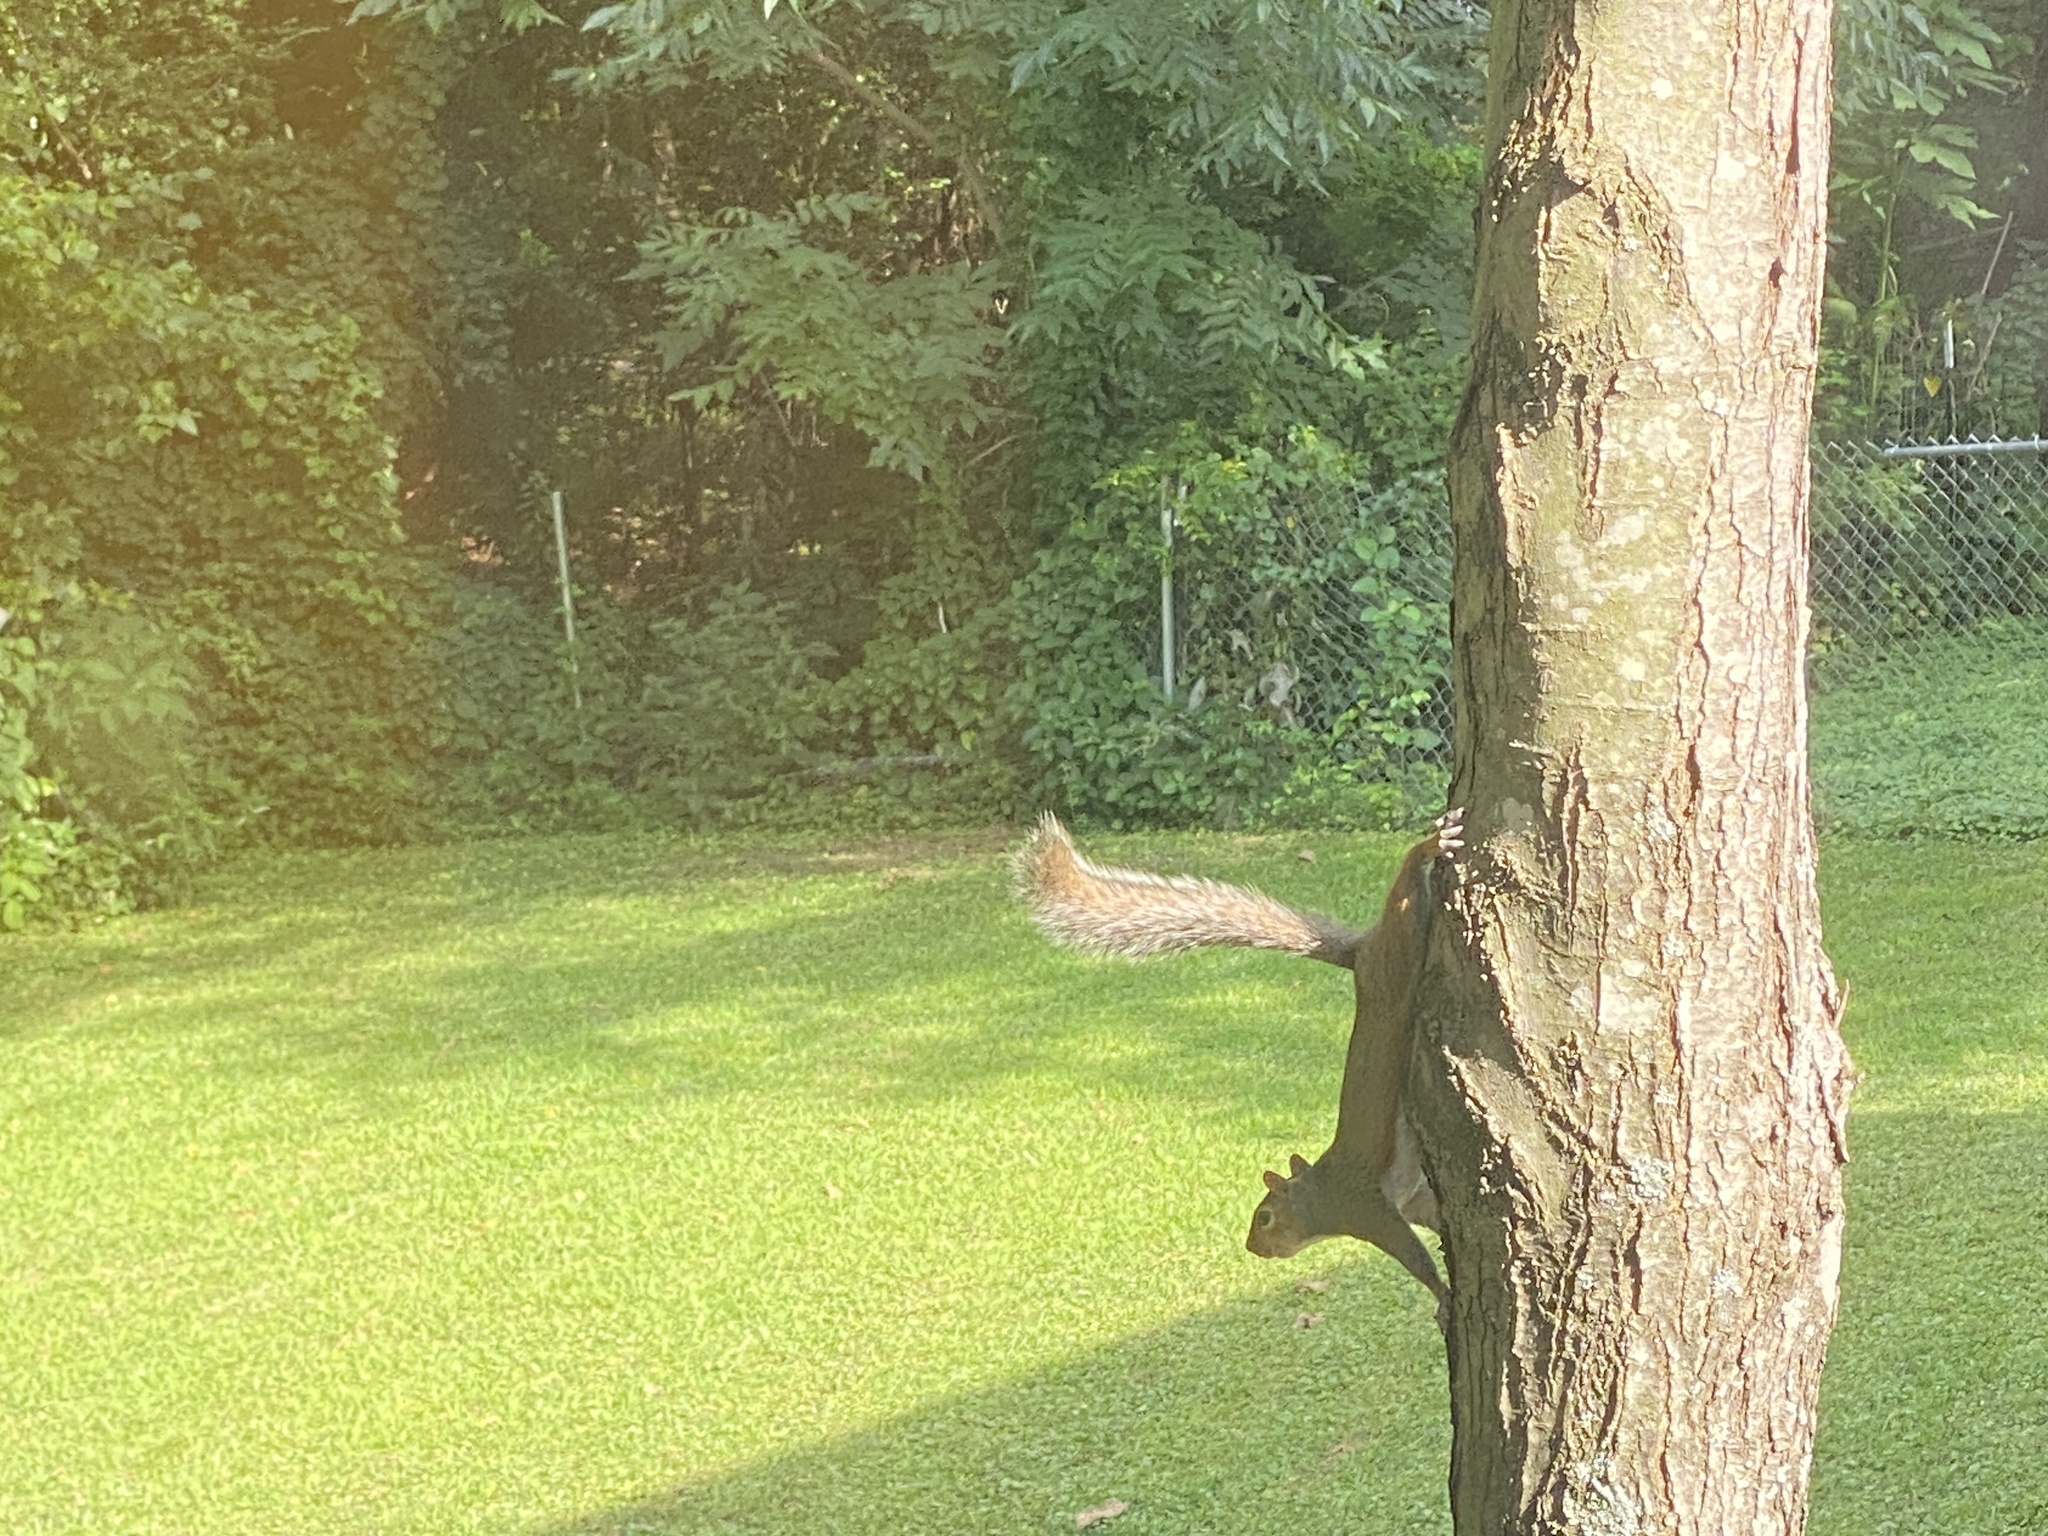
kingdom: Animalia
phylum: Chordata
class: Mammalia
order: Rodentia
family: Sciuridae
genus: Sciurus
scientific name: Sciurus carolinensis
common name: Eastern gray squirrel
